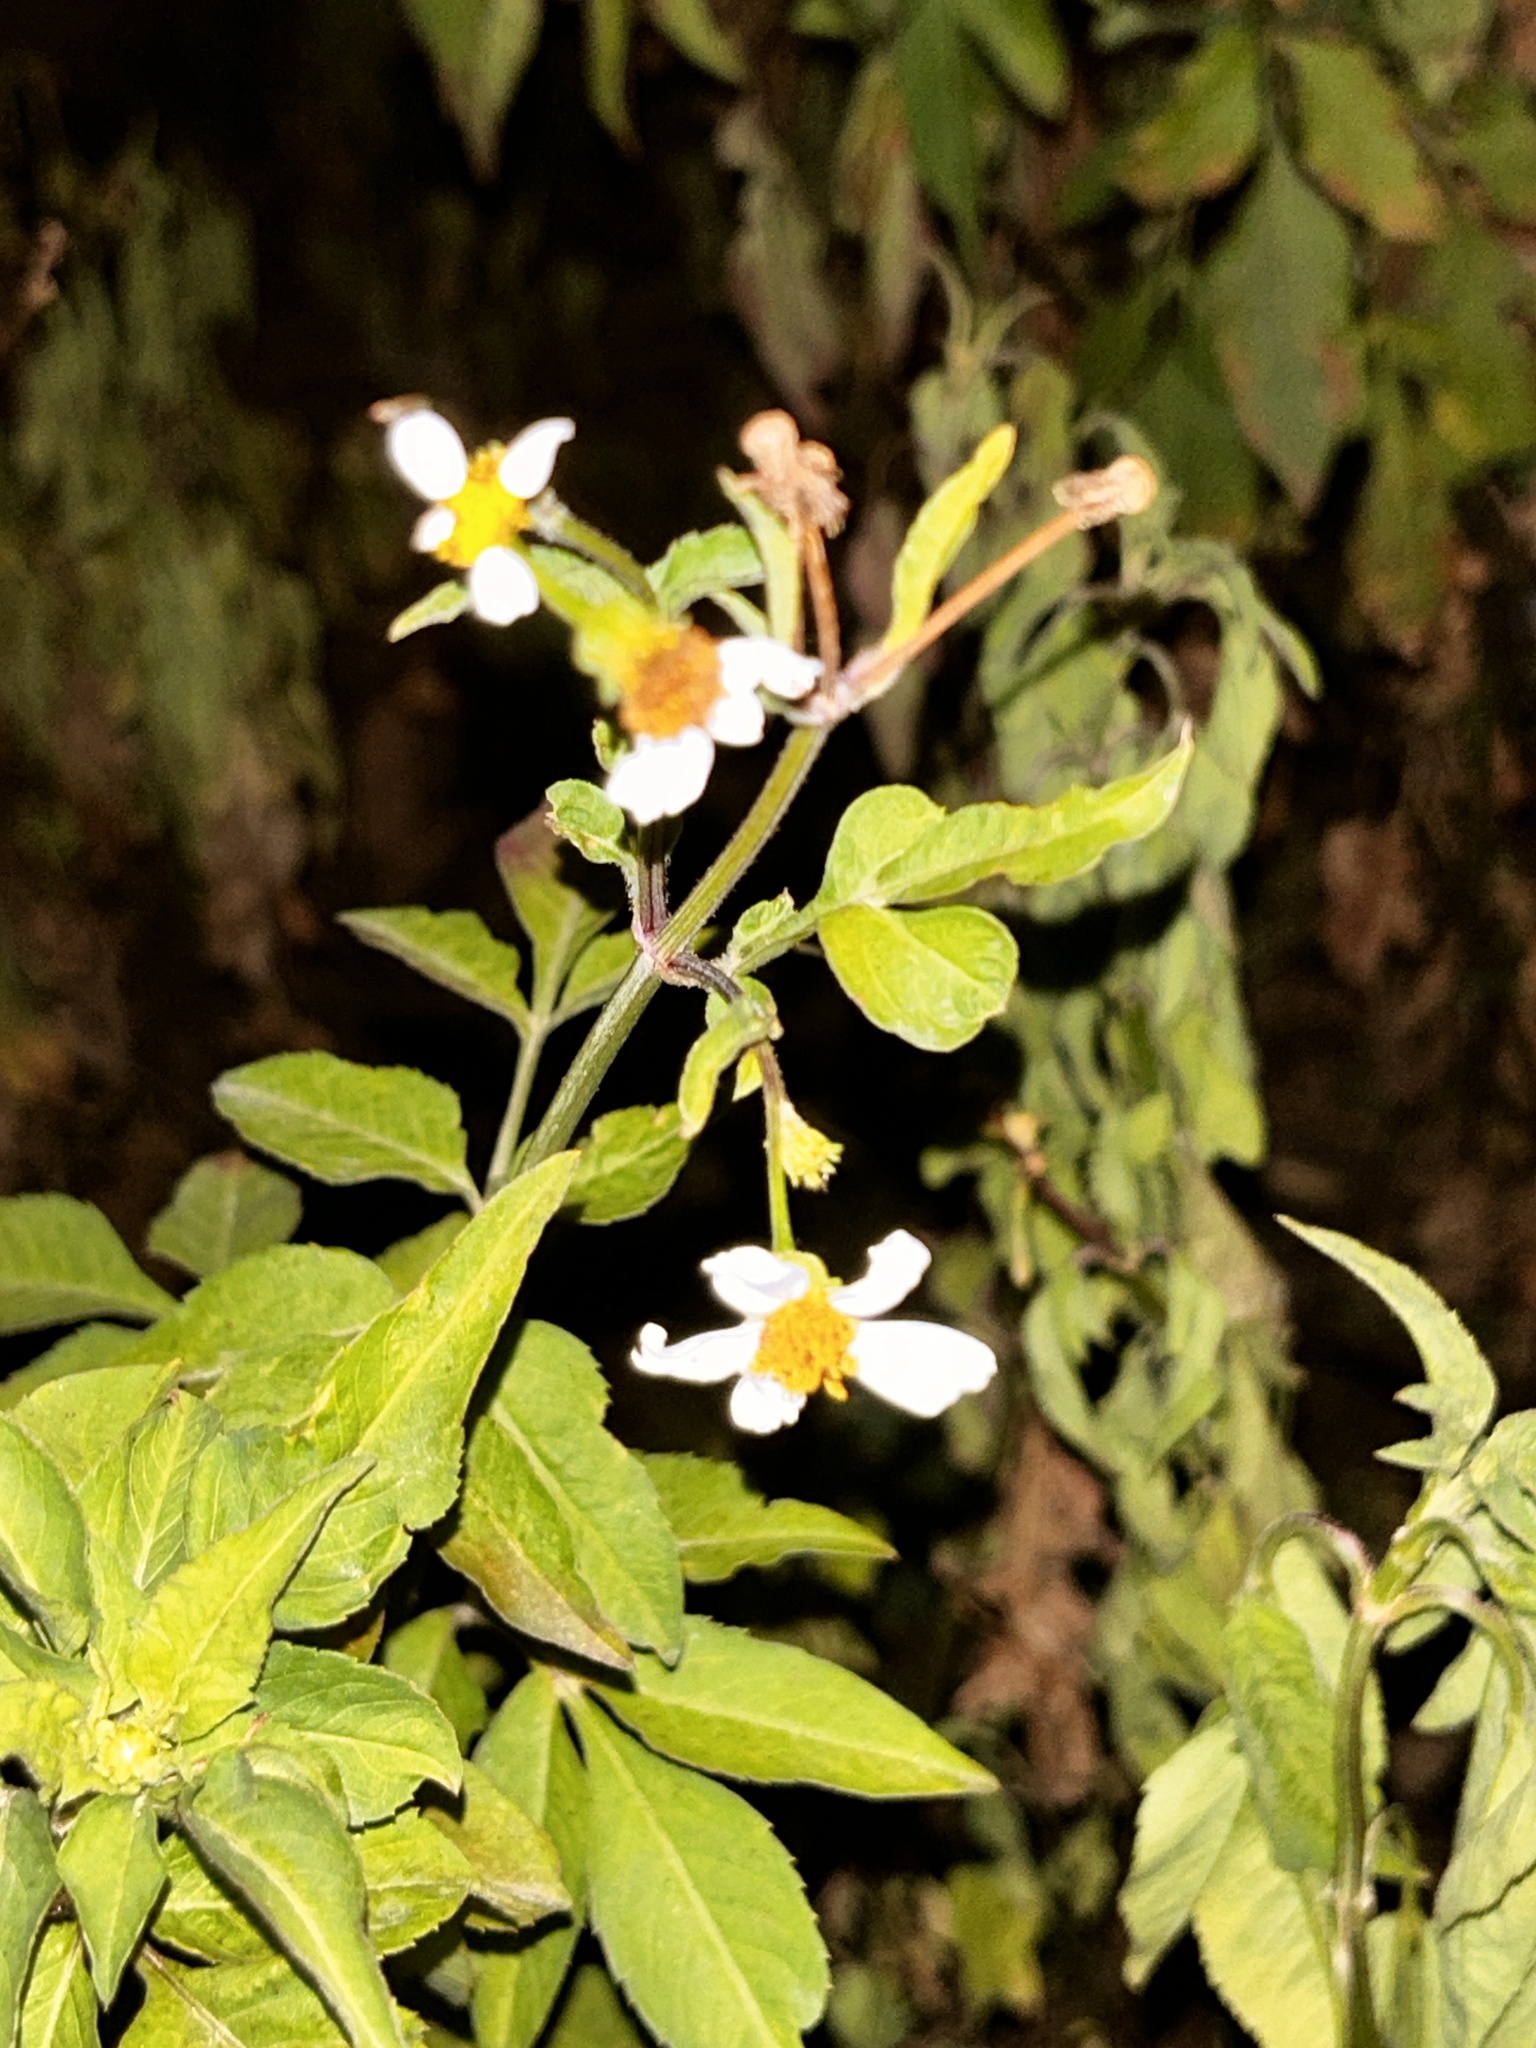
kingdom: Plantae
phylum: Tracheophyta
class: Magnoliopsida
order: Asterales
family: Asteraceae
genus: Bidens
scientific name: Bidens alba
